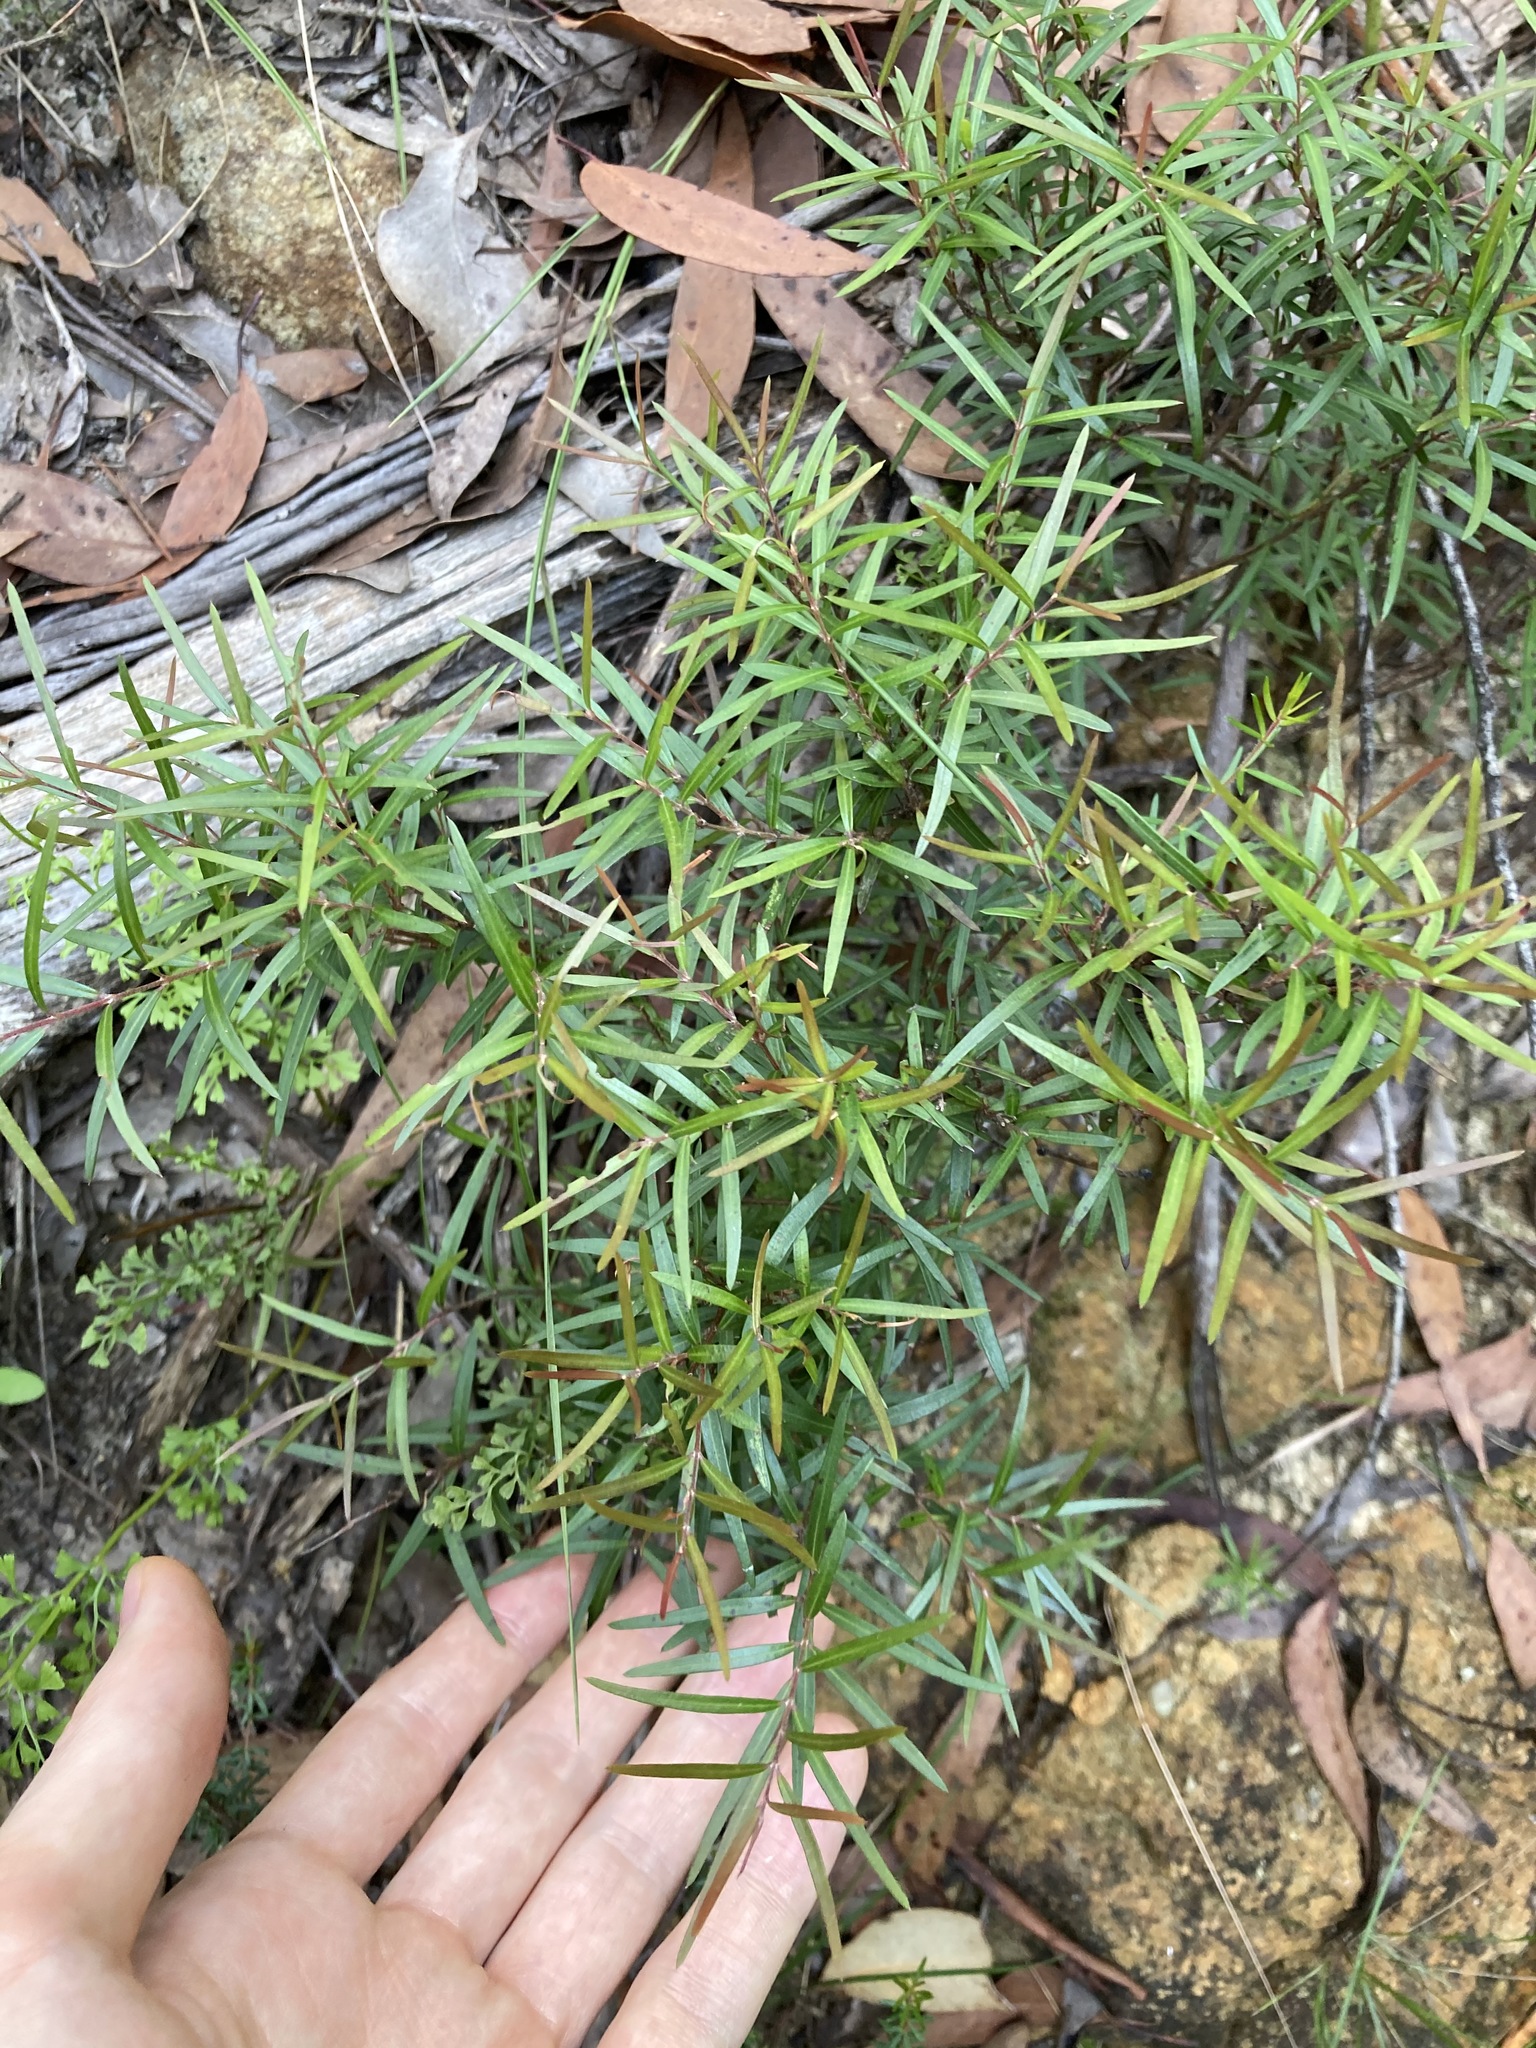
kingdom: Plantae
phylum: Tracheophyta
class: Pinopsida
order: Pinales
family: Podocarpaceae
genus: Podocarpus
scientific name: Podocarpus spinulosus
